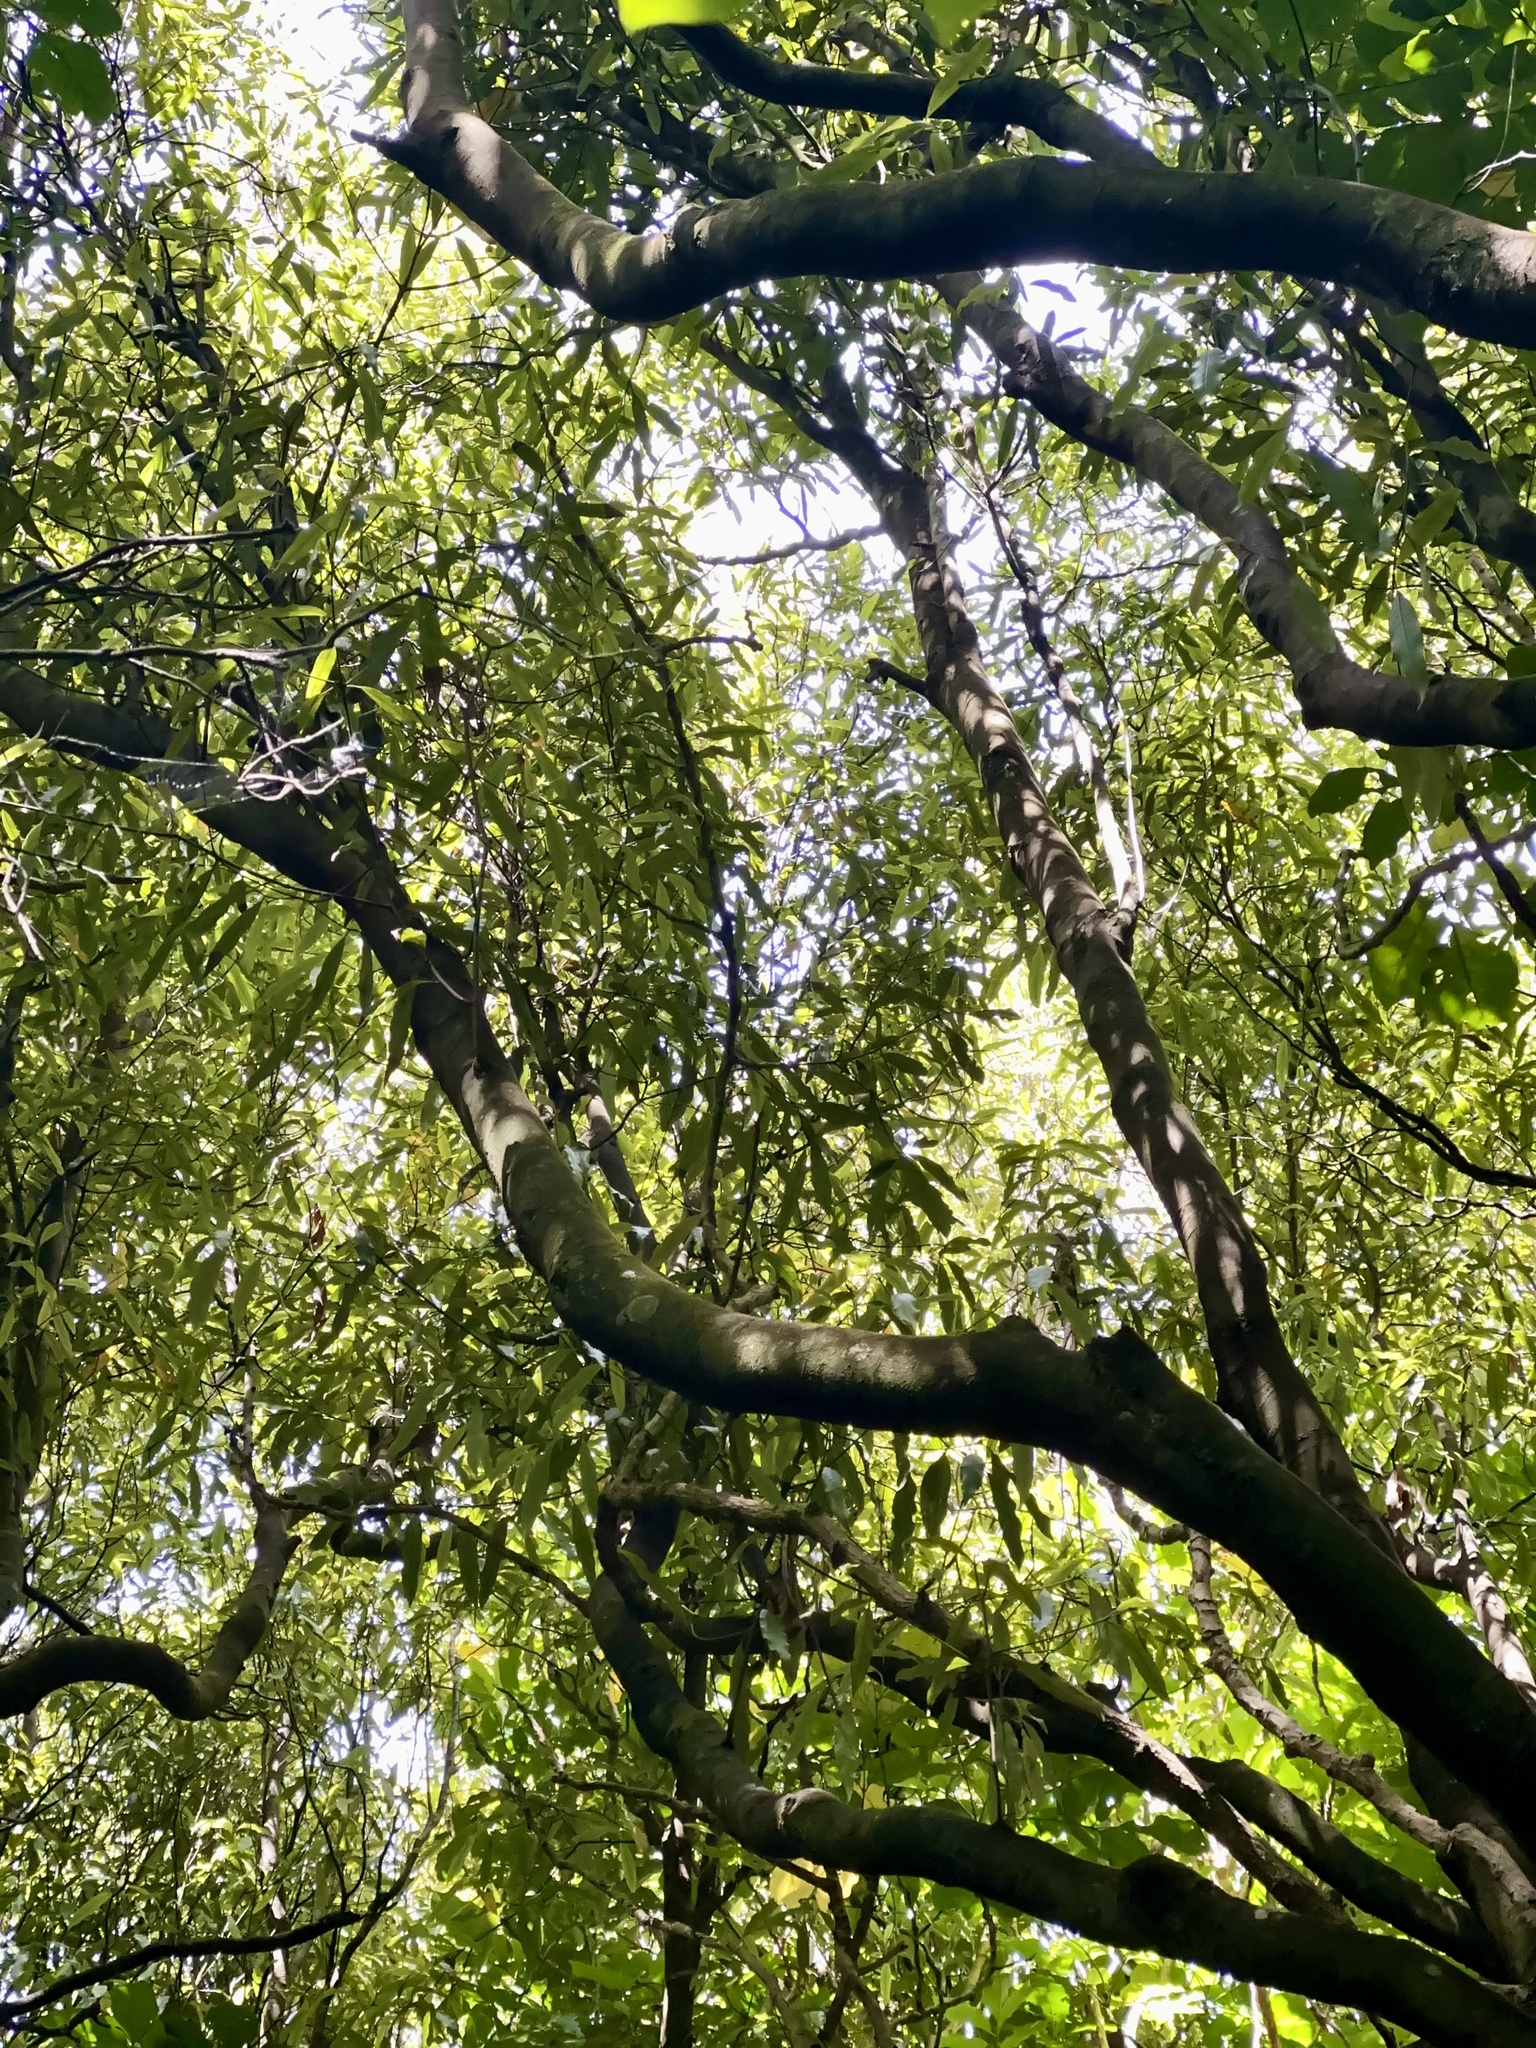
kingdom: Plantae
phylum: Tracheophyta
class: Magnoliopsida
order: Laurales
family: Lauraceae
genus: Beilschmiedia
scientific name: Beilschmiedia tawa
